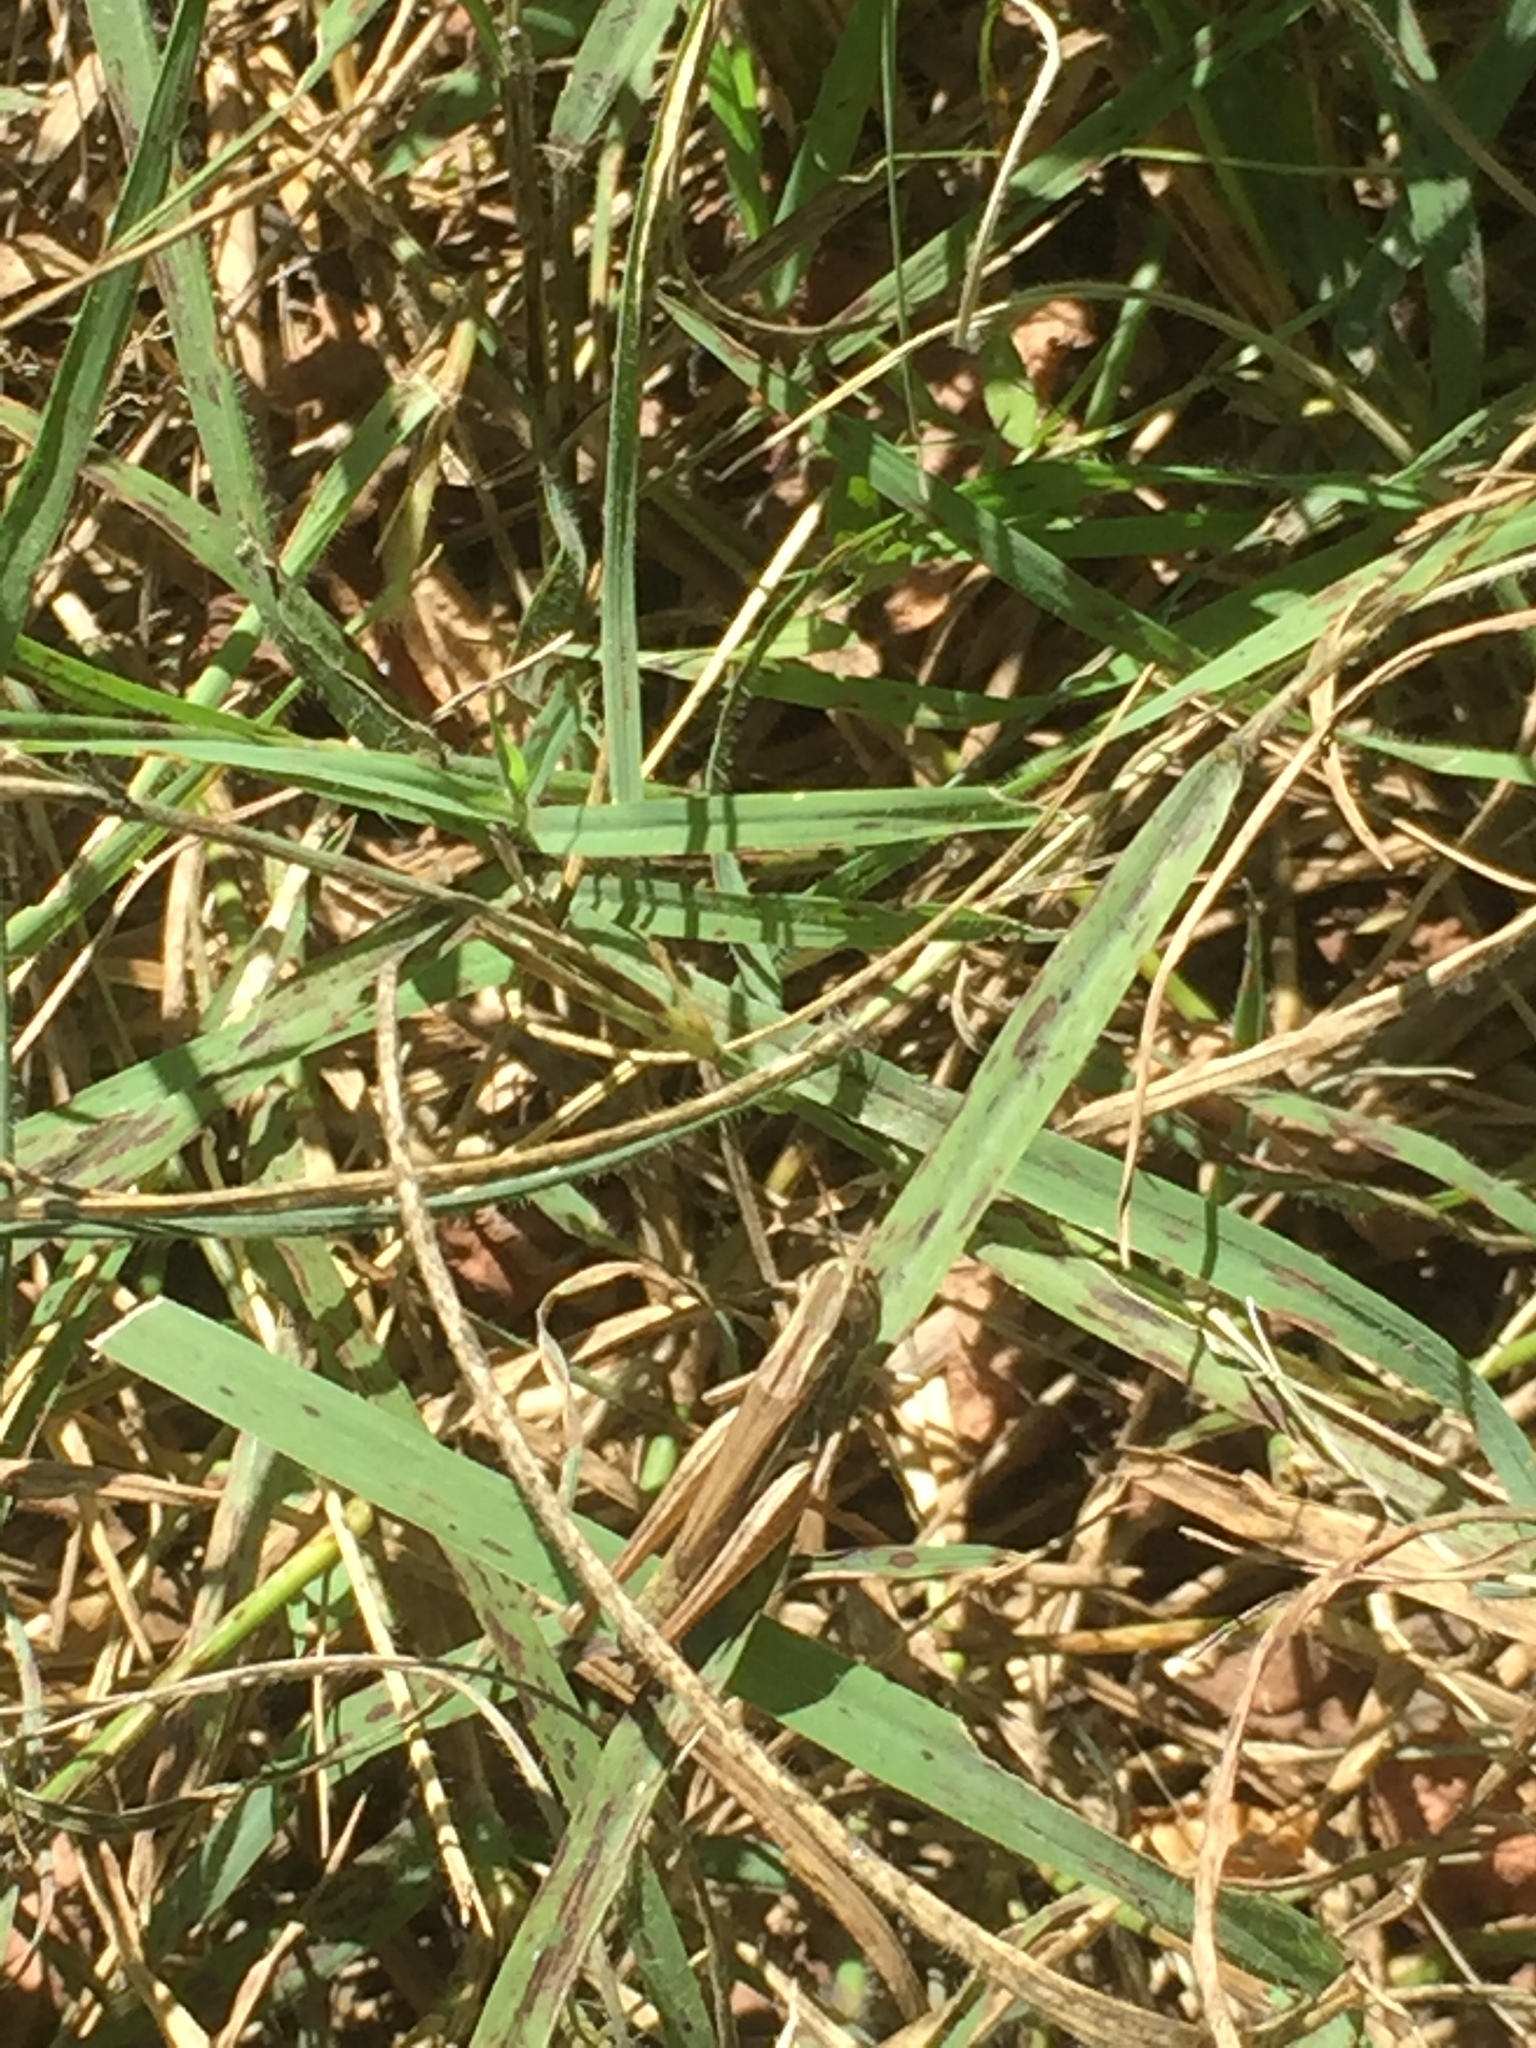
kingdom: Animalia
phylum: Arthropoda
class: Insecta
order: Orthoptera
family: Acrididae
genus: Euchorthippus
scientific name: Euchorthippus declivus
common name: Common straw grasshopper
